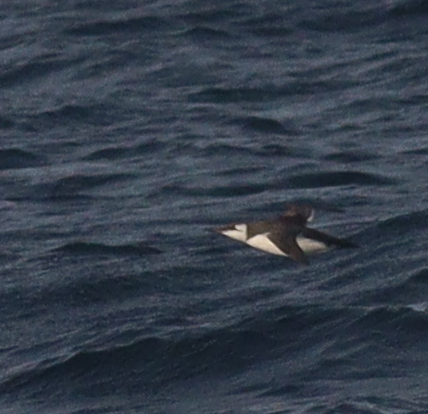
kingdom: Animalia
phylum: Chordata
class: Aves
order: Charadriiformes
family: Alcidae
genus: Uria
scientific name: Uria aalge
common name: Common murre
